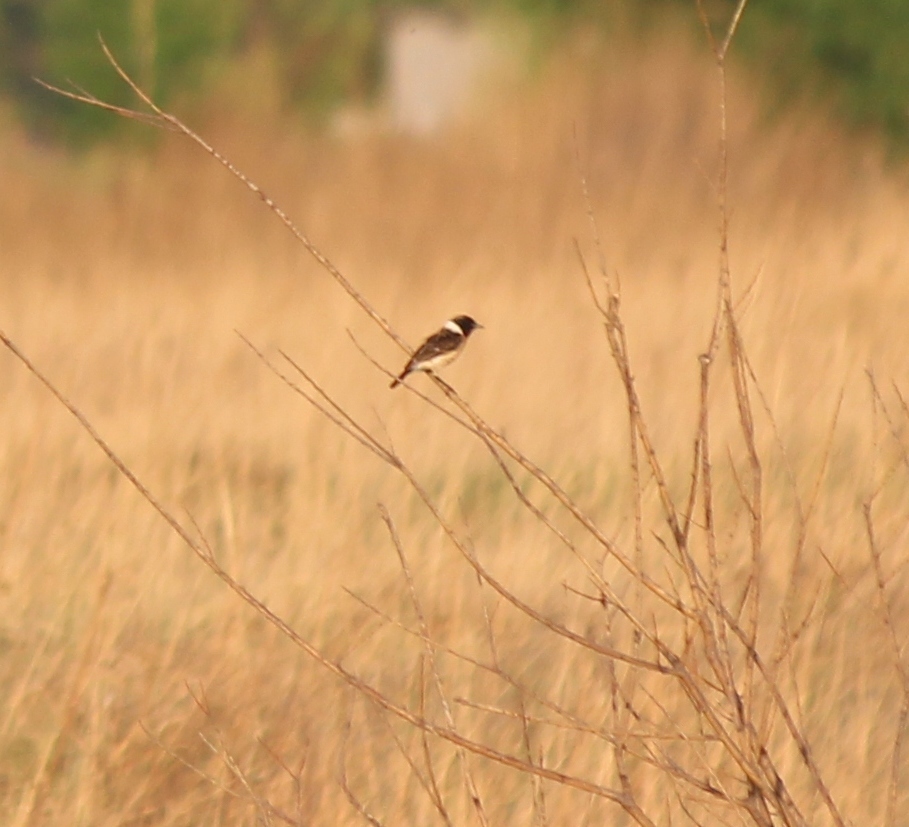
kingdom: Animalia
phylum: Chordata
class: Aves
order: Passeriformes
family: Muscicapidae
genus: Saxicola
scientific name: Saxicola maurus
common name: Siberian stonechat
